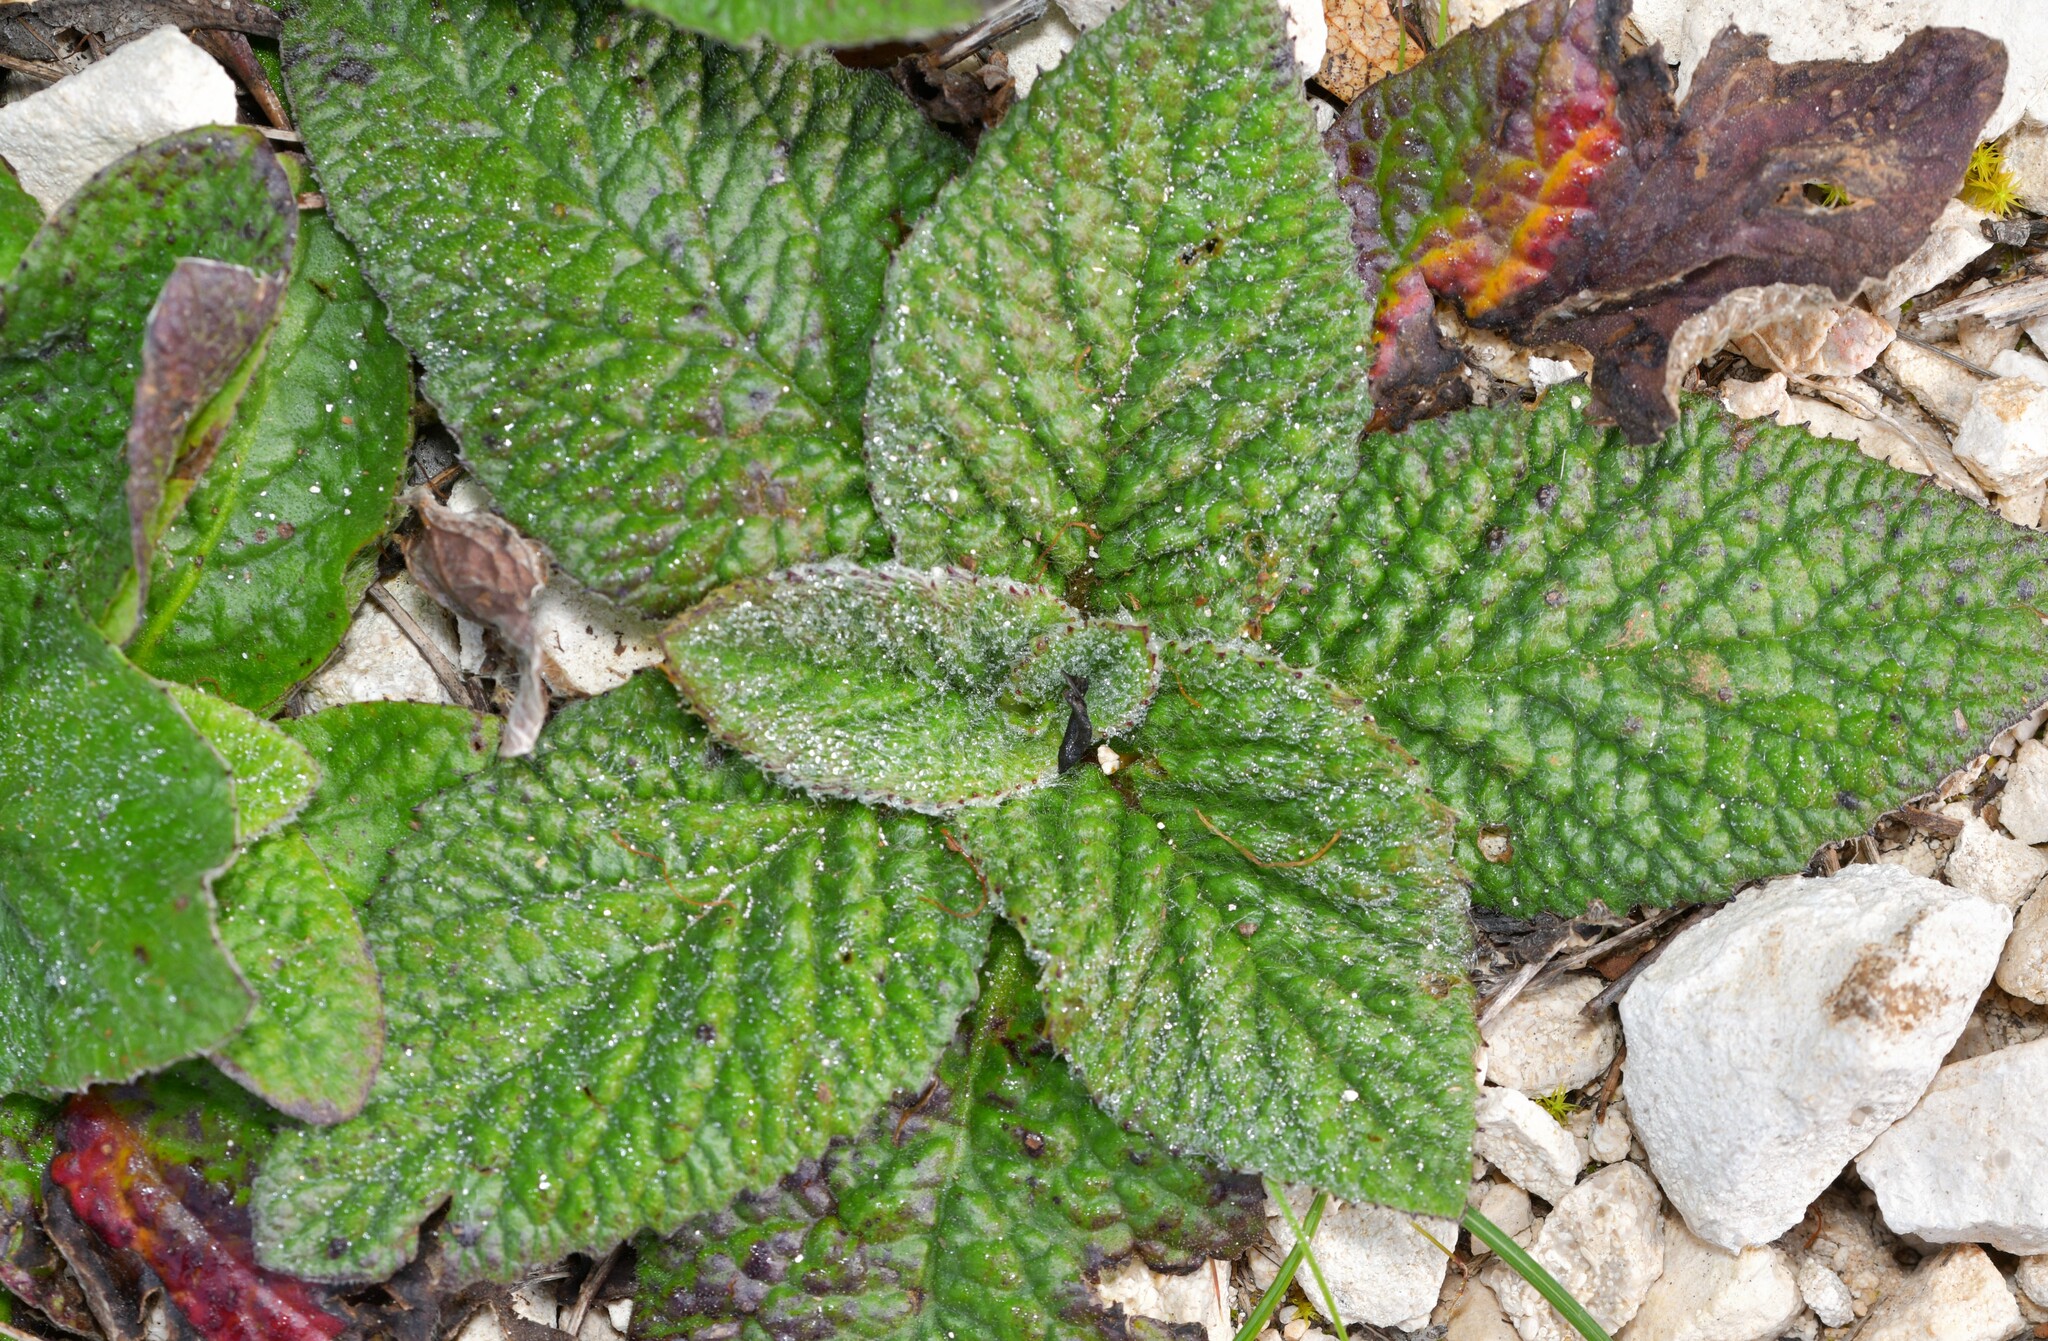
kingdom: Plantae
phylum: Tracheophyta
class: Magnoliopsida
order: Asterales
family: Asteraceae
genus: Pulicaria
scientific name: Pulicaria odora
